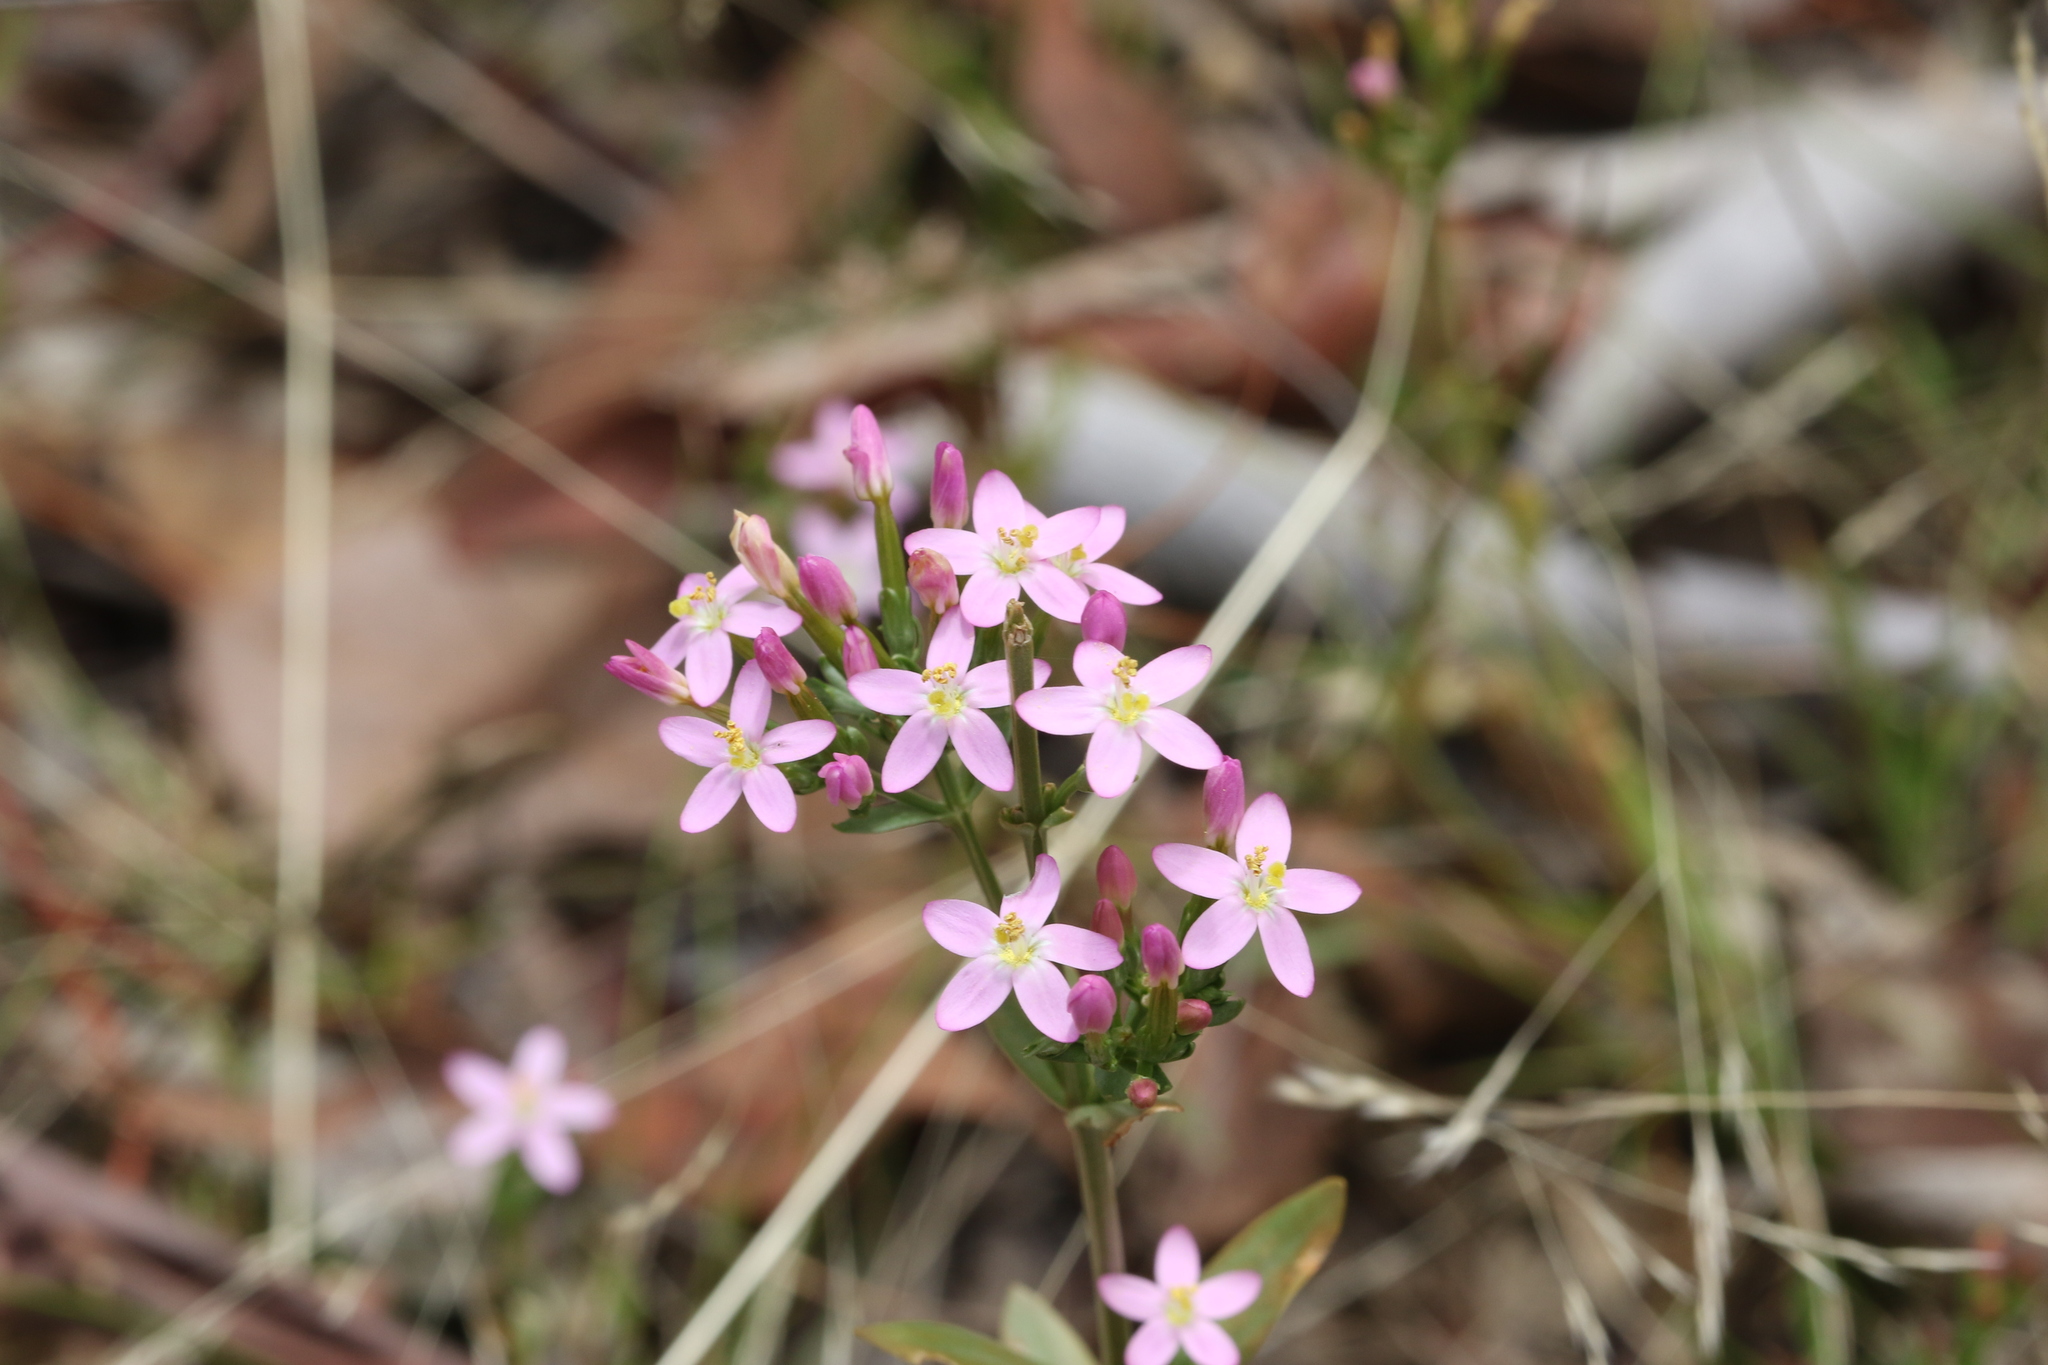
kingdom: Plantae
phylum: Tracheophyta
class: Magnoliopsida
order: Gentianales
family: Gentianaceae
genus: Centaurium
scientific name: Centaurium erythraea
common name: Common centaury
